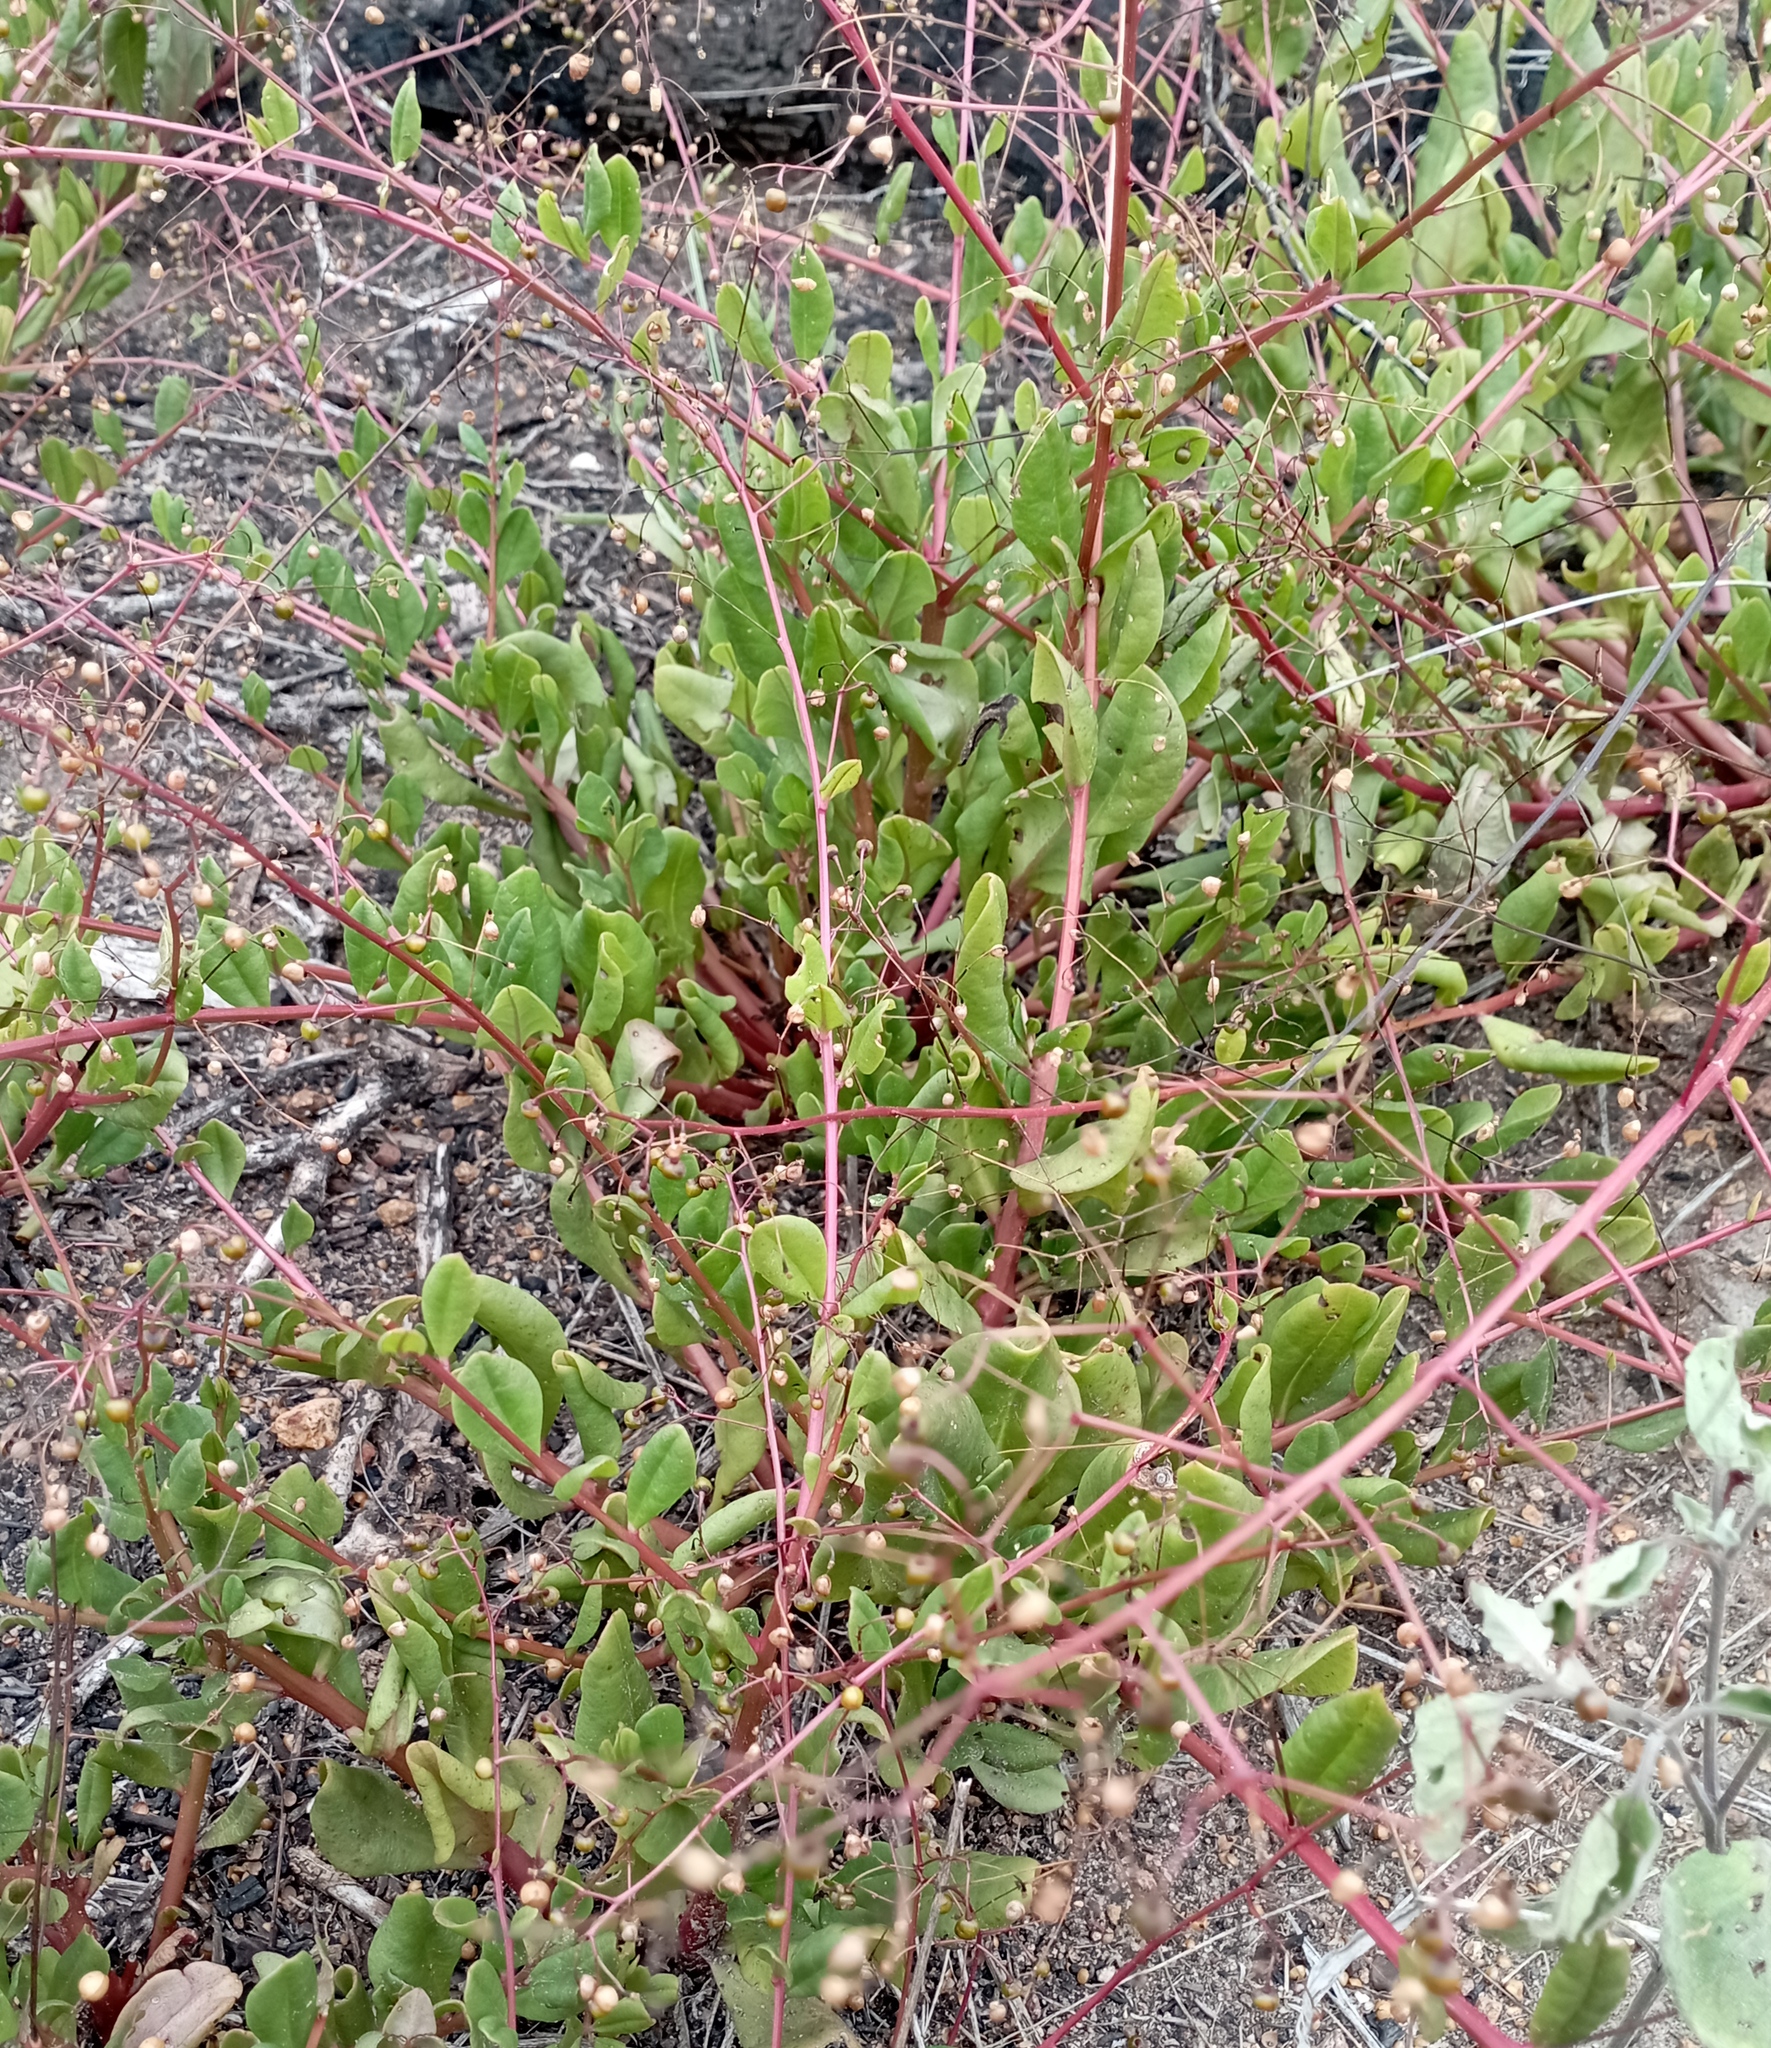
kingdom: Plantae
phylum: Tracheophyta
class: Magnoliopsida
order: Caryophyllales
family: Talinaceae
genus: Talinum
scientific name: Talinum paniculatum
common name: Jewels of opar
